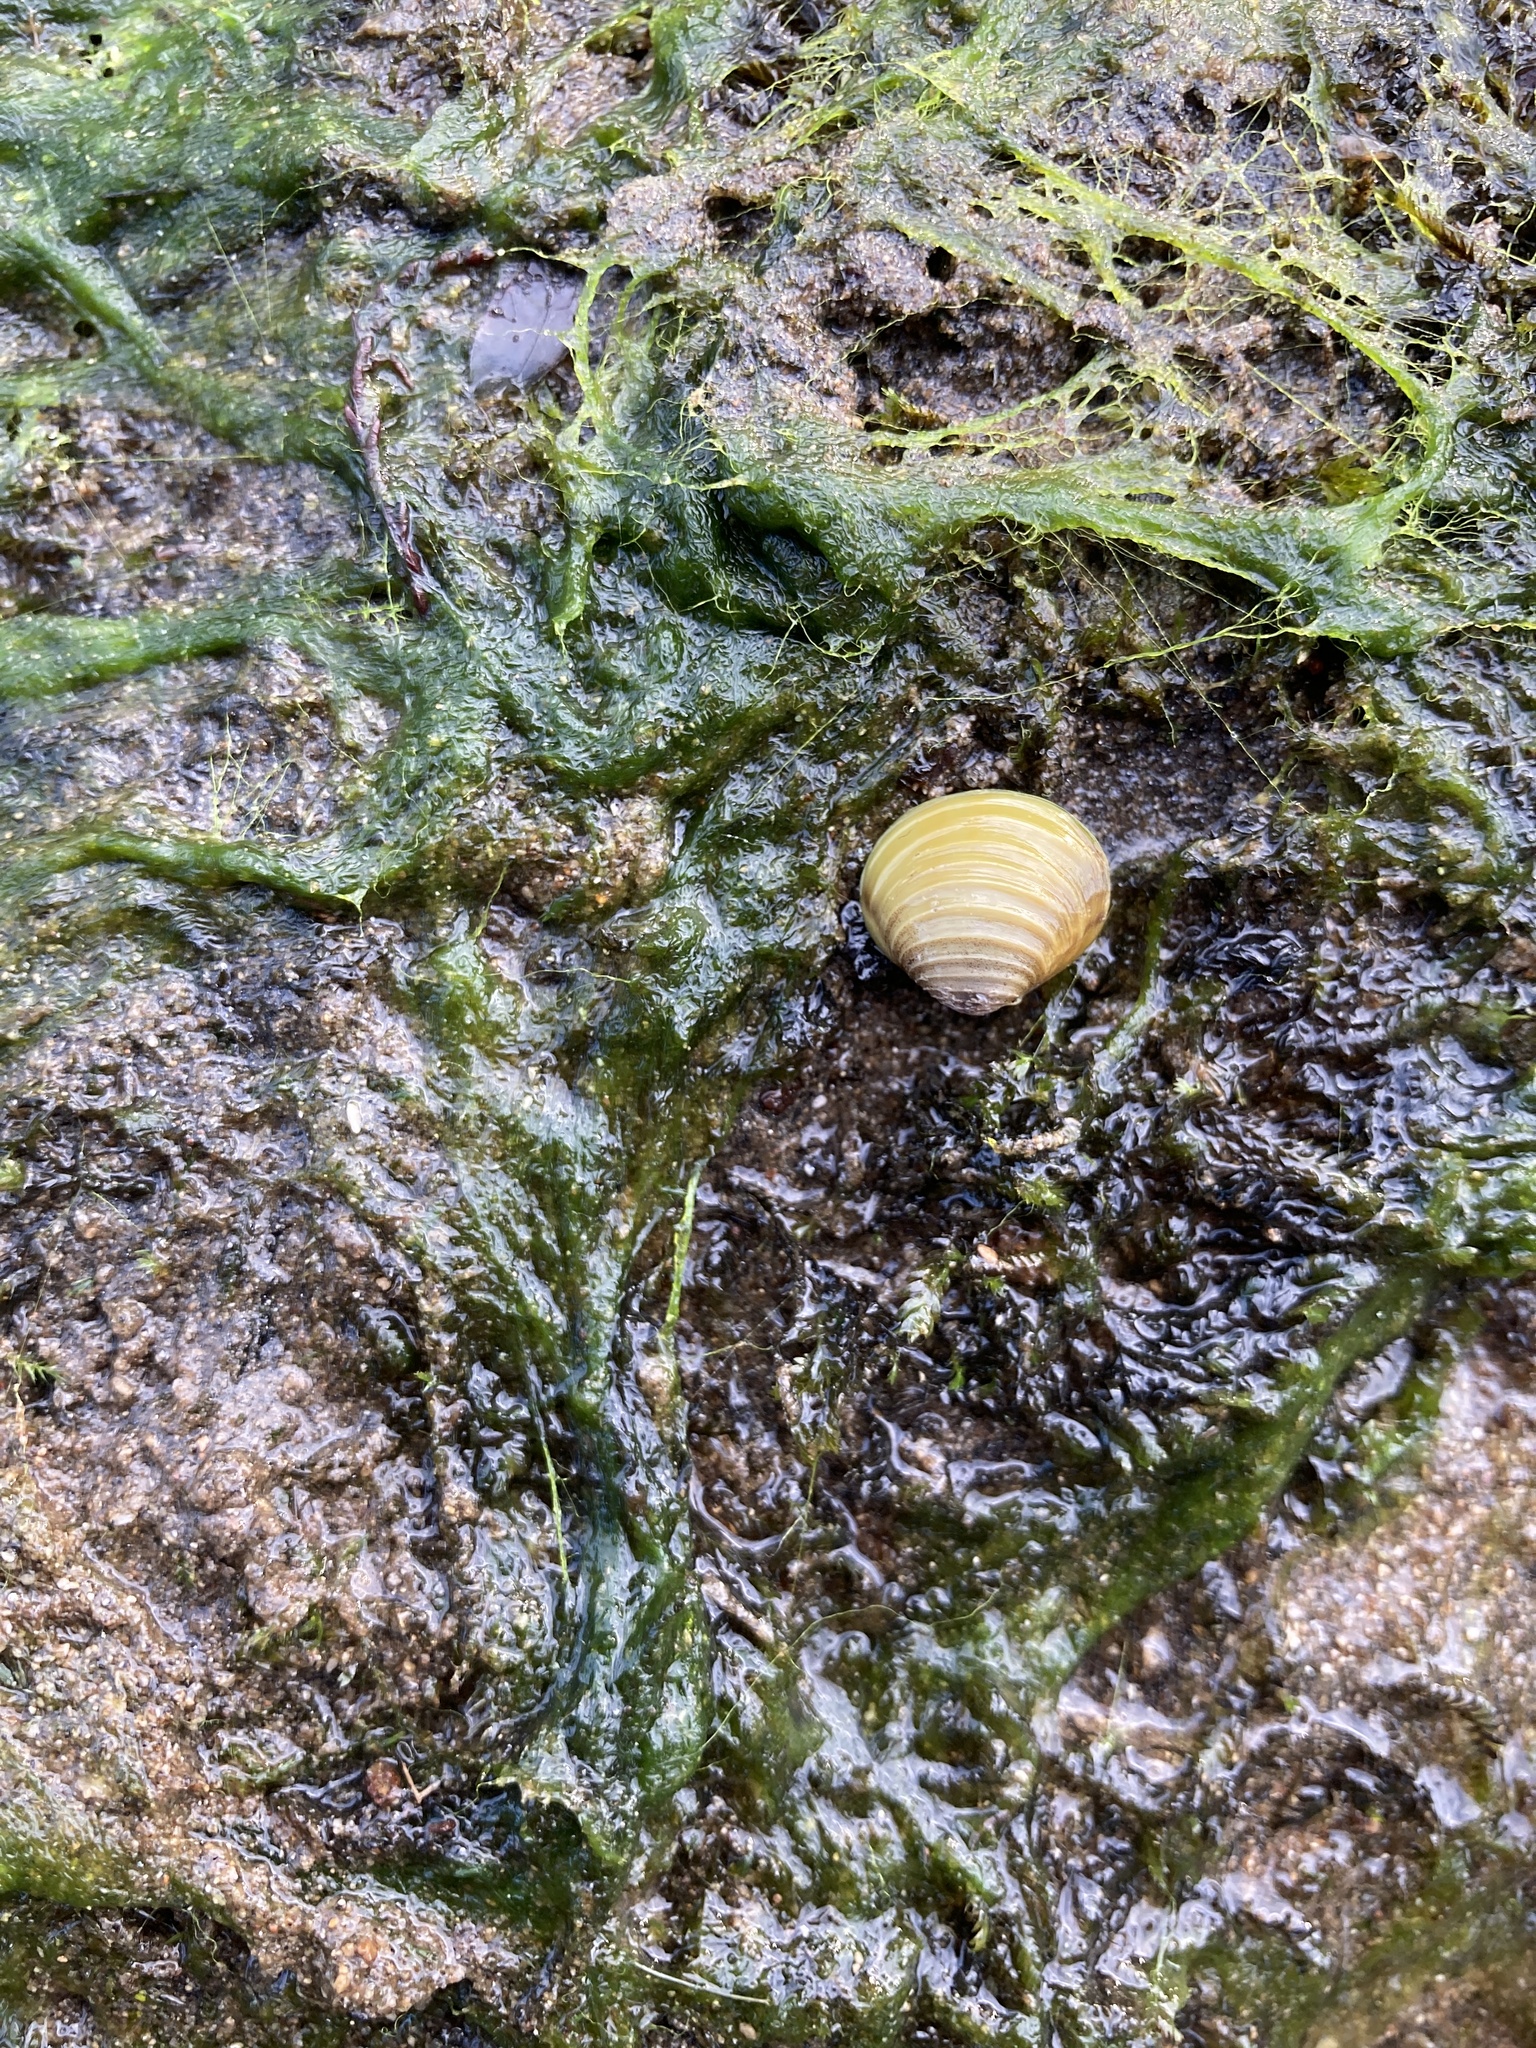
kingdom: Animalia
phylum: Mollusca
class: Bivalvia
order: Venerida
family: Cyrenidae
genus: Corbicula
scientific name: Corbicula fluminea
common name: Asian clam
